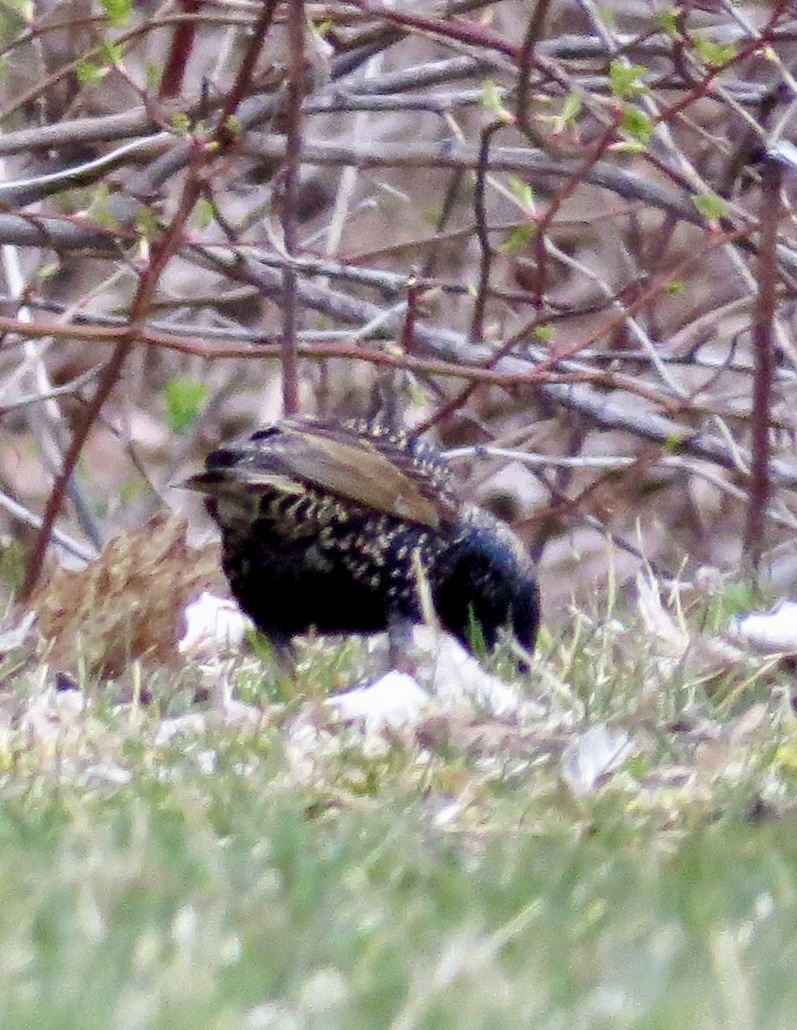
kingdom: Animalia
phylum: Chordata
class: Aves
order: Passeriformes
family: Sturnidae
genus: Sturnus
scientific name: Sturnus vulgaris
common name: Common starling
